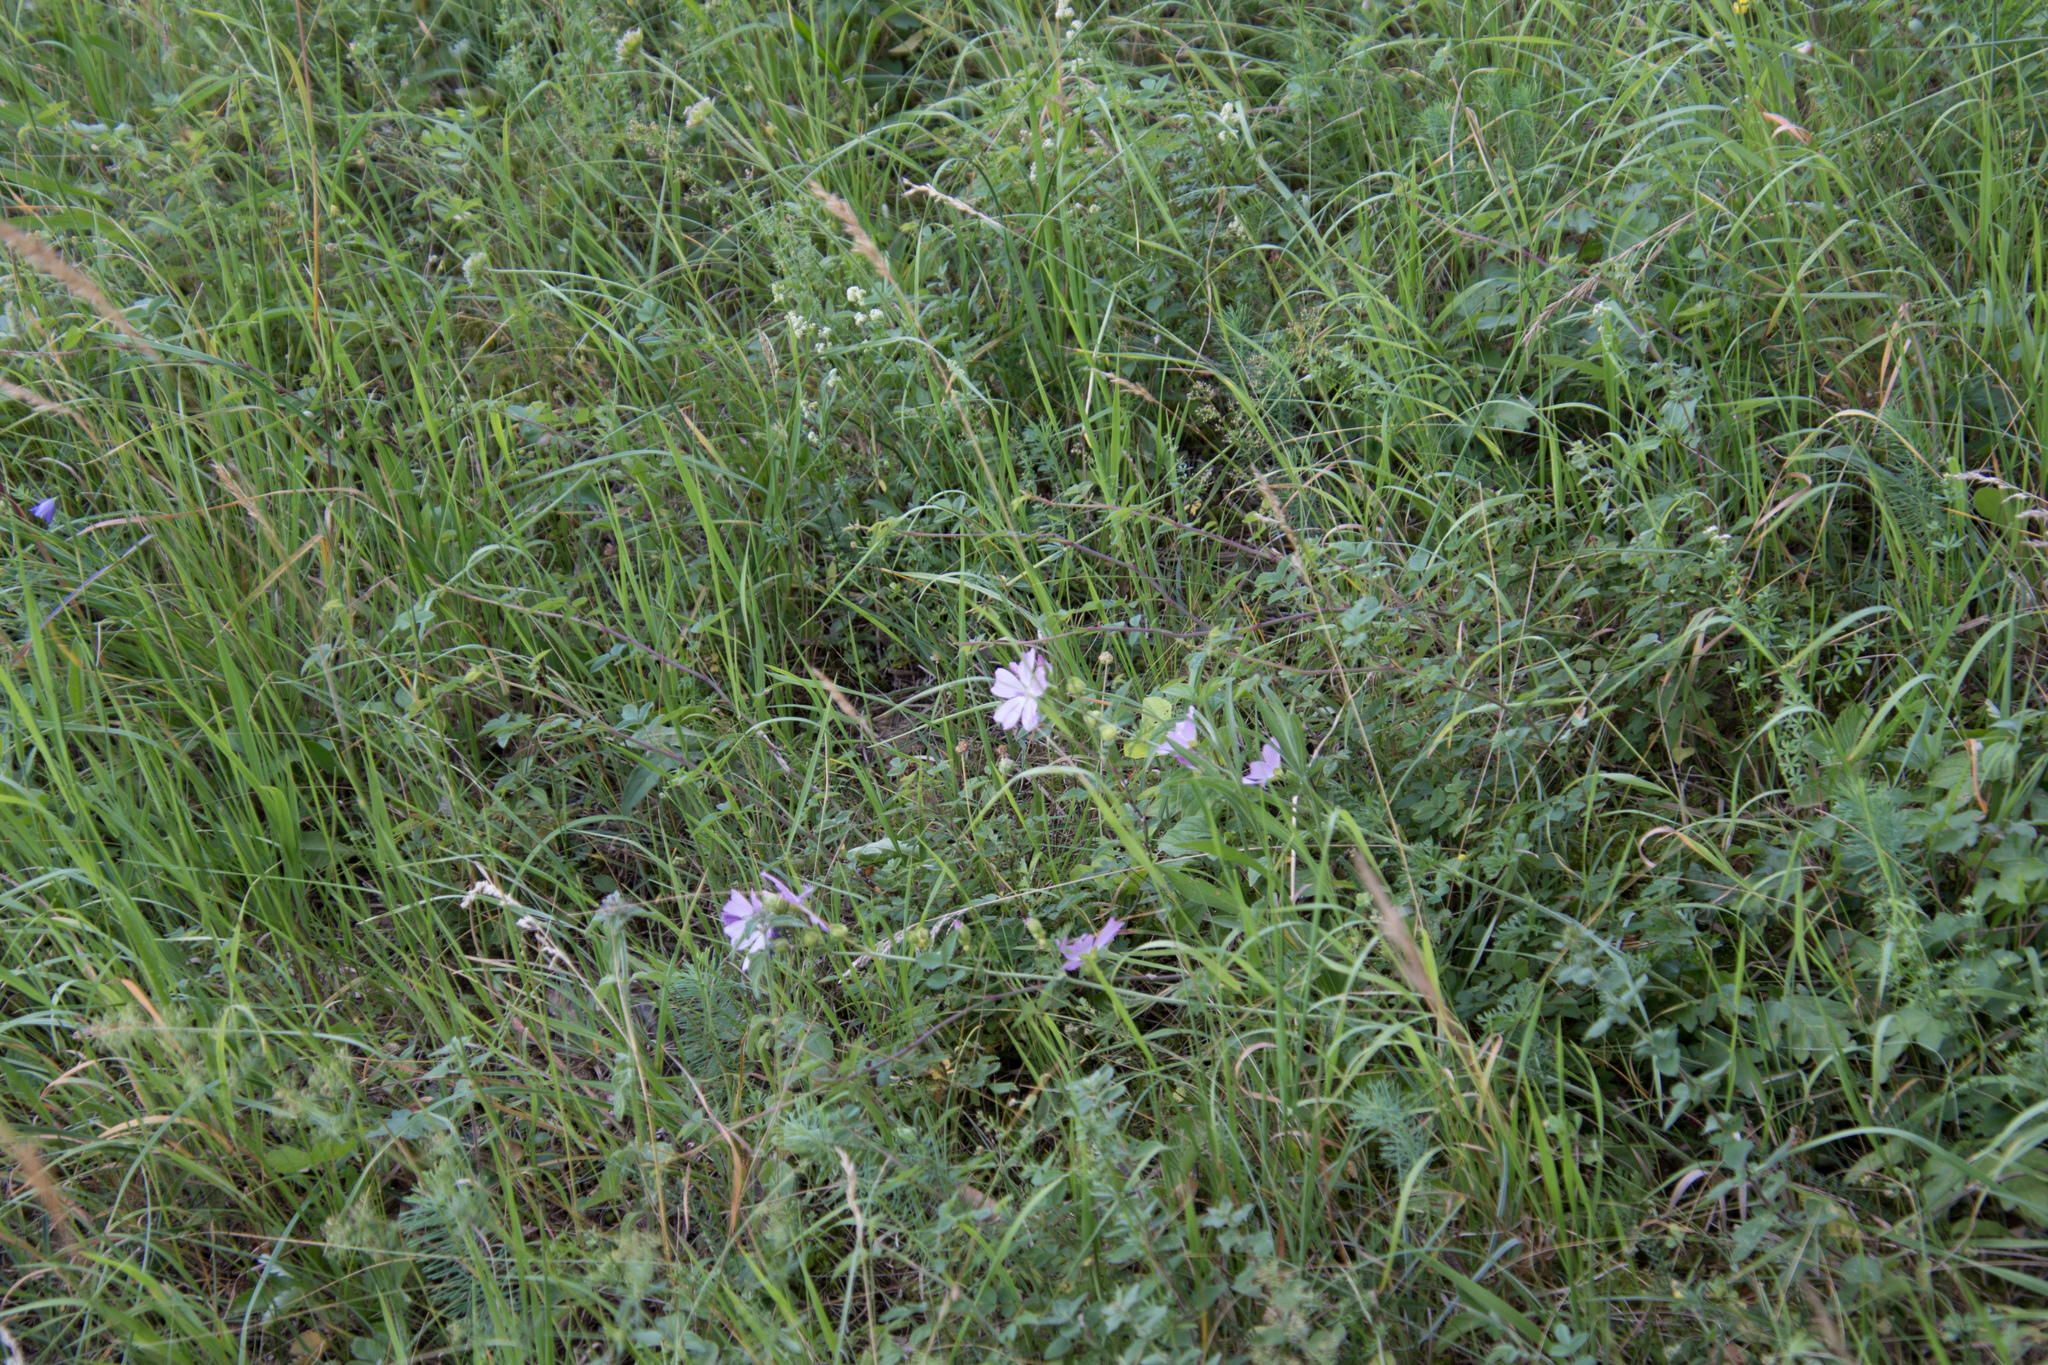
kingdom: Plantae
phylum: Tracheophyta
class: Magnoliopsida
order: Malvales
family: Malvaceae
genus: Malva
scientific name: Malva moschata
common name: Musk mallow
